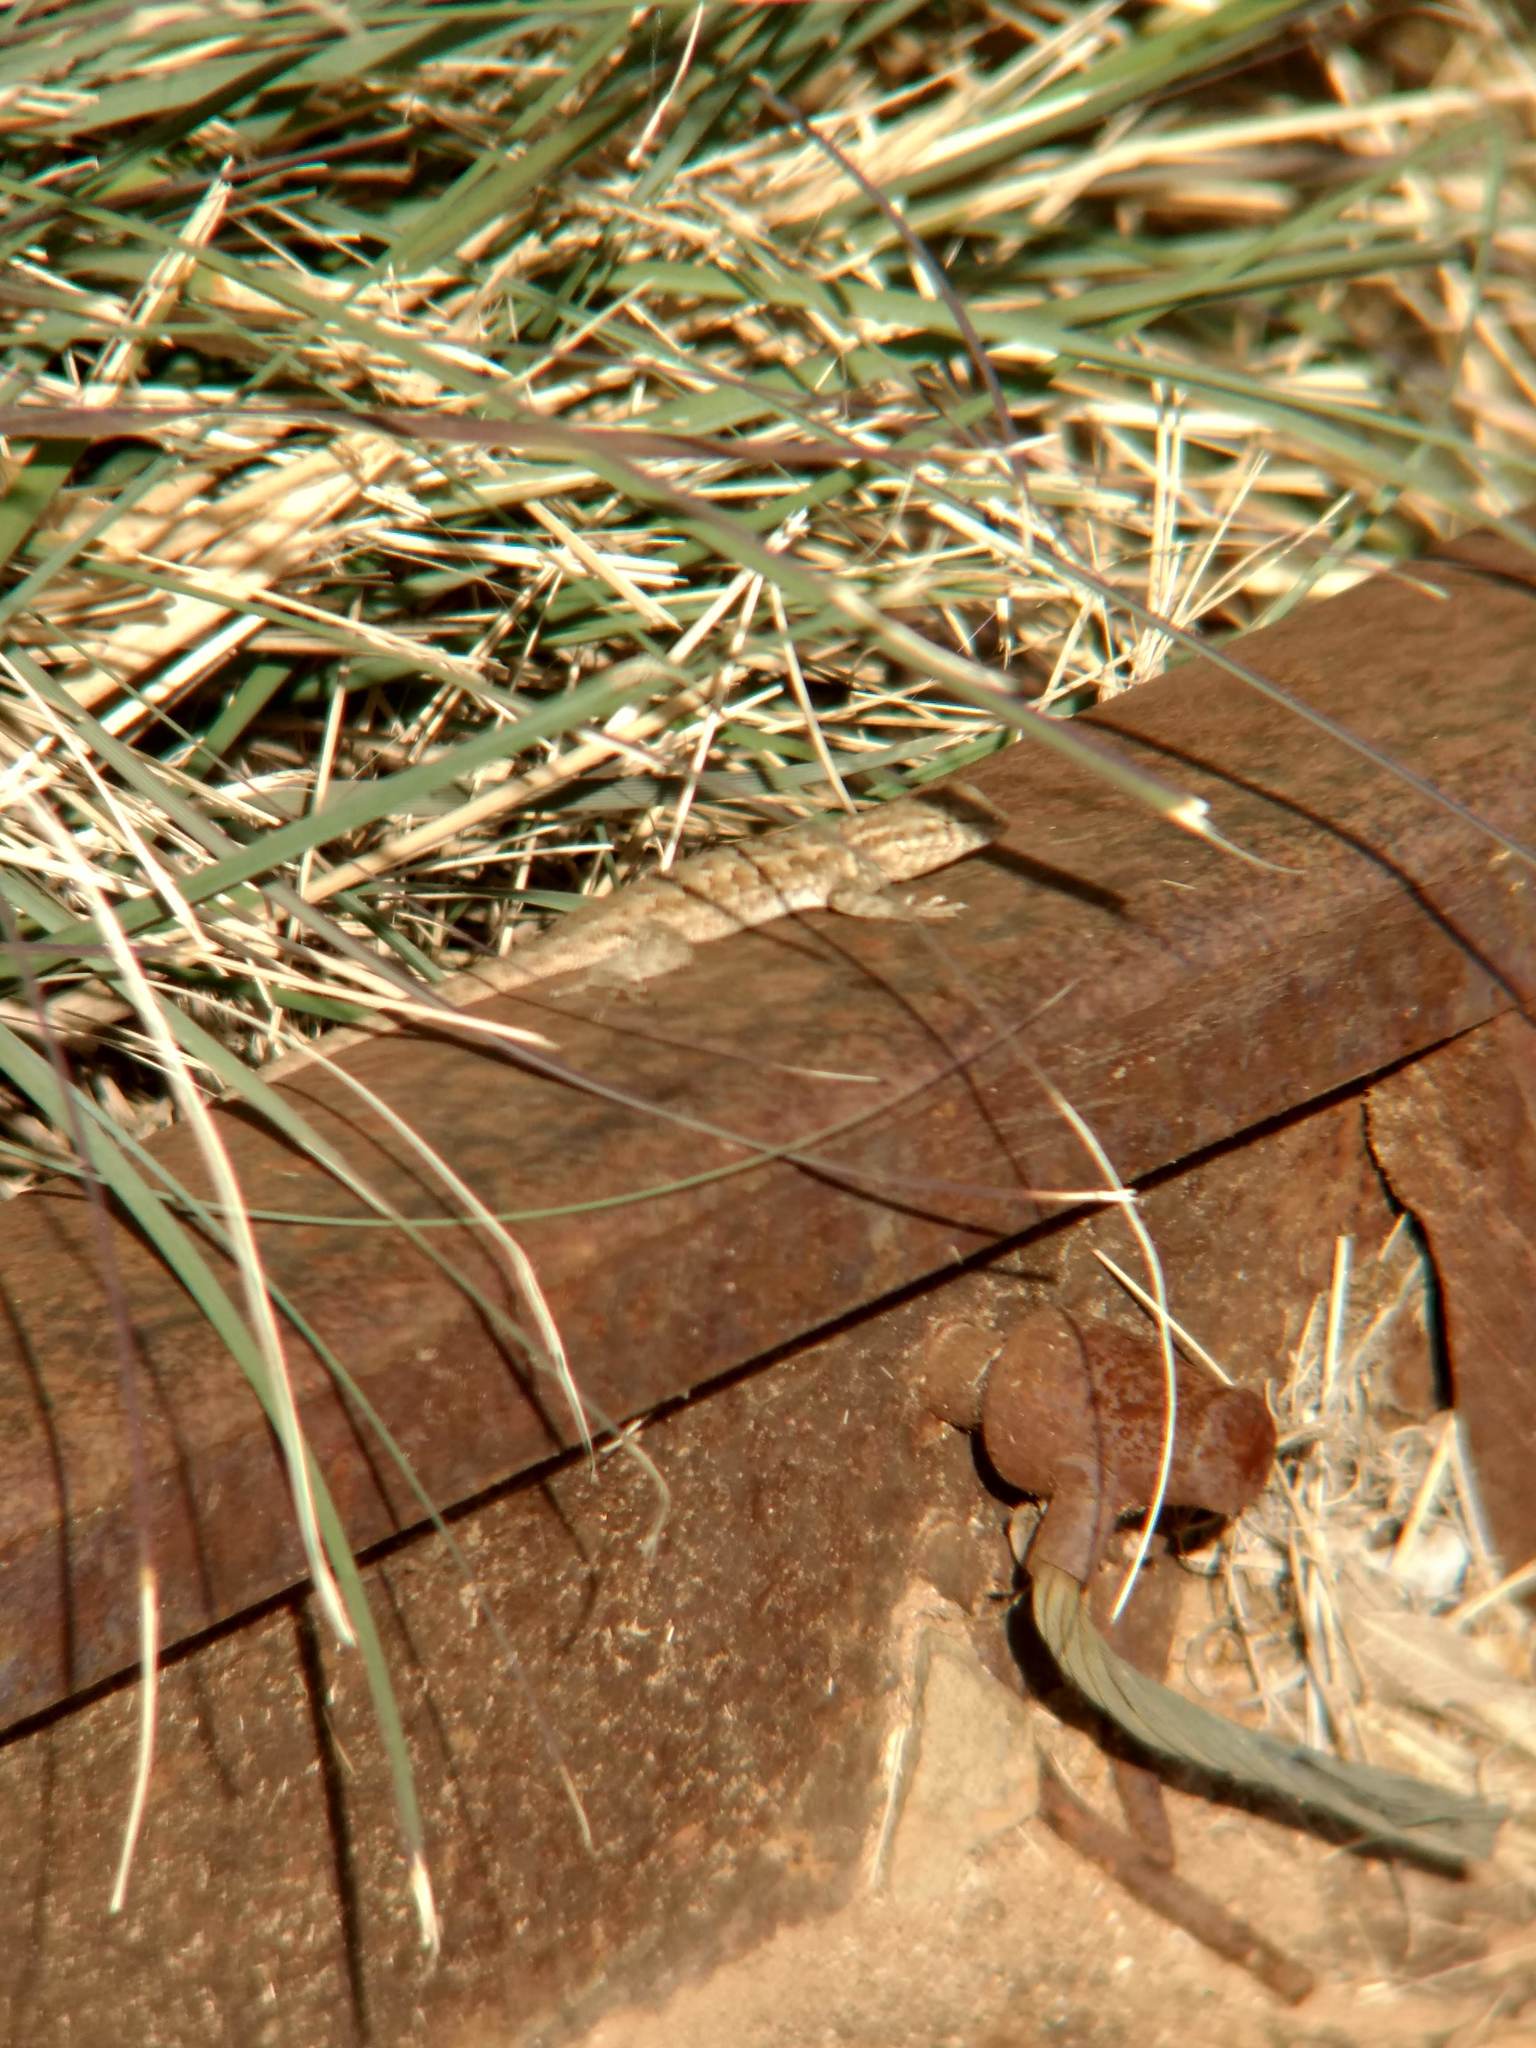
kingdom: Animalia
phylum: Chordata
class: Squamata
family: Phrynosomatidae
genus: Uta
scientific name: Uta stansburiana
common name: Side-blotched lizard
